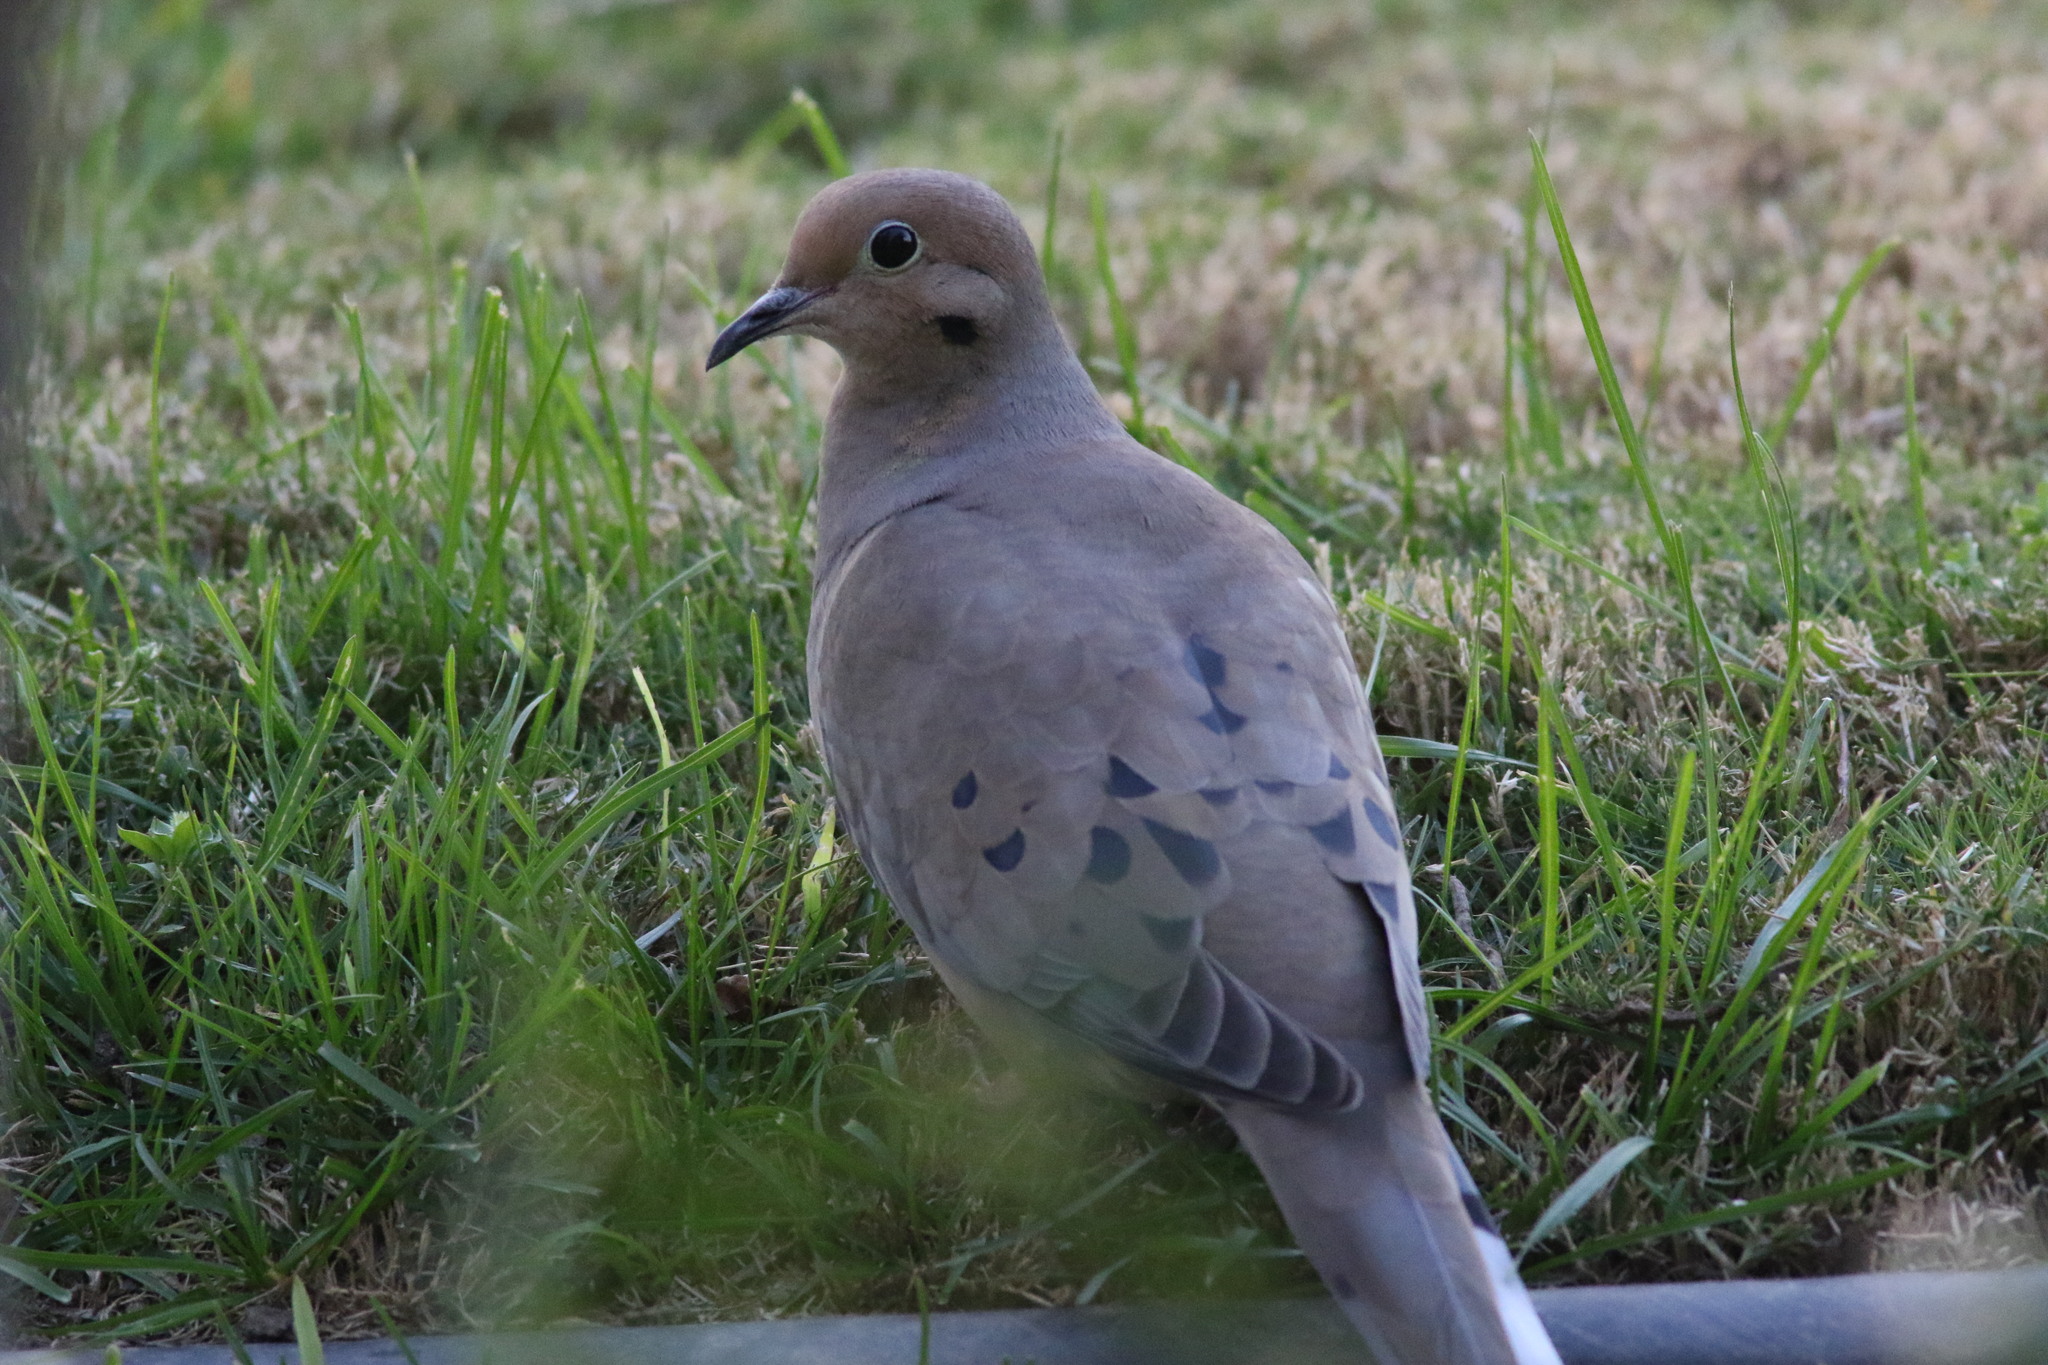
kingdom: Animalia
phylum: Chordata
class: Aves
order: Columbiformes
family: Columbidae
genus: Zenaida
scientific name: Zenaida macroura
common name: Mourning dove
